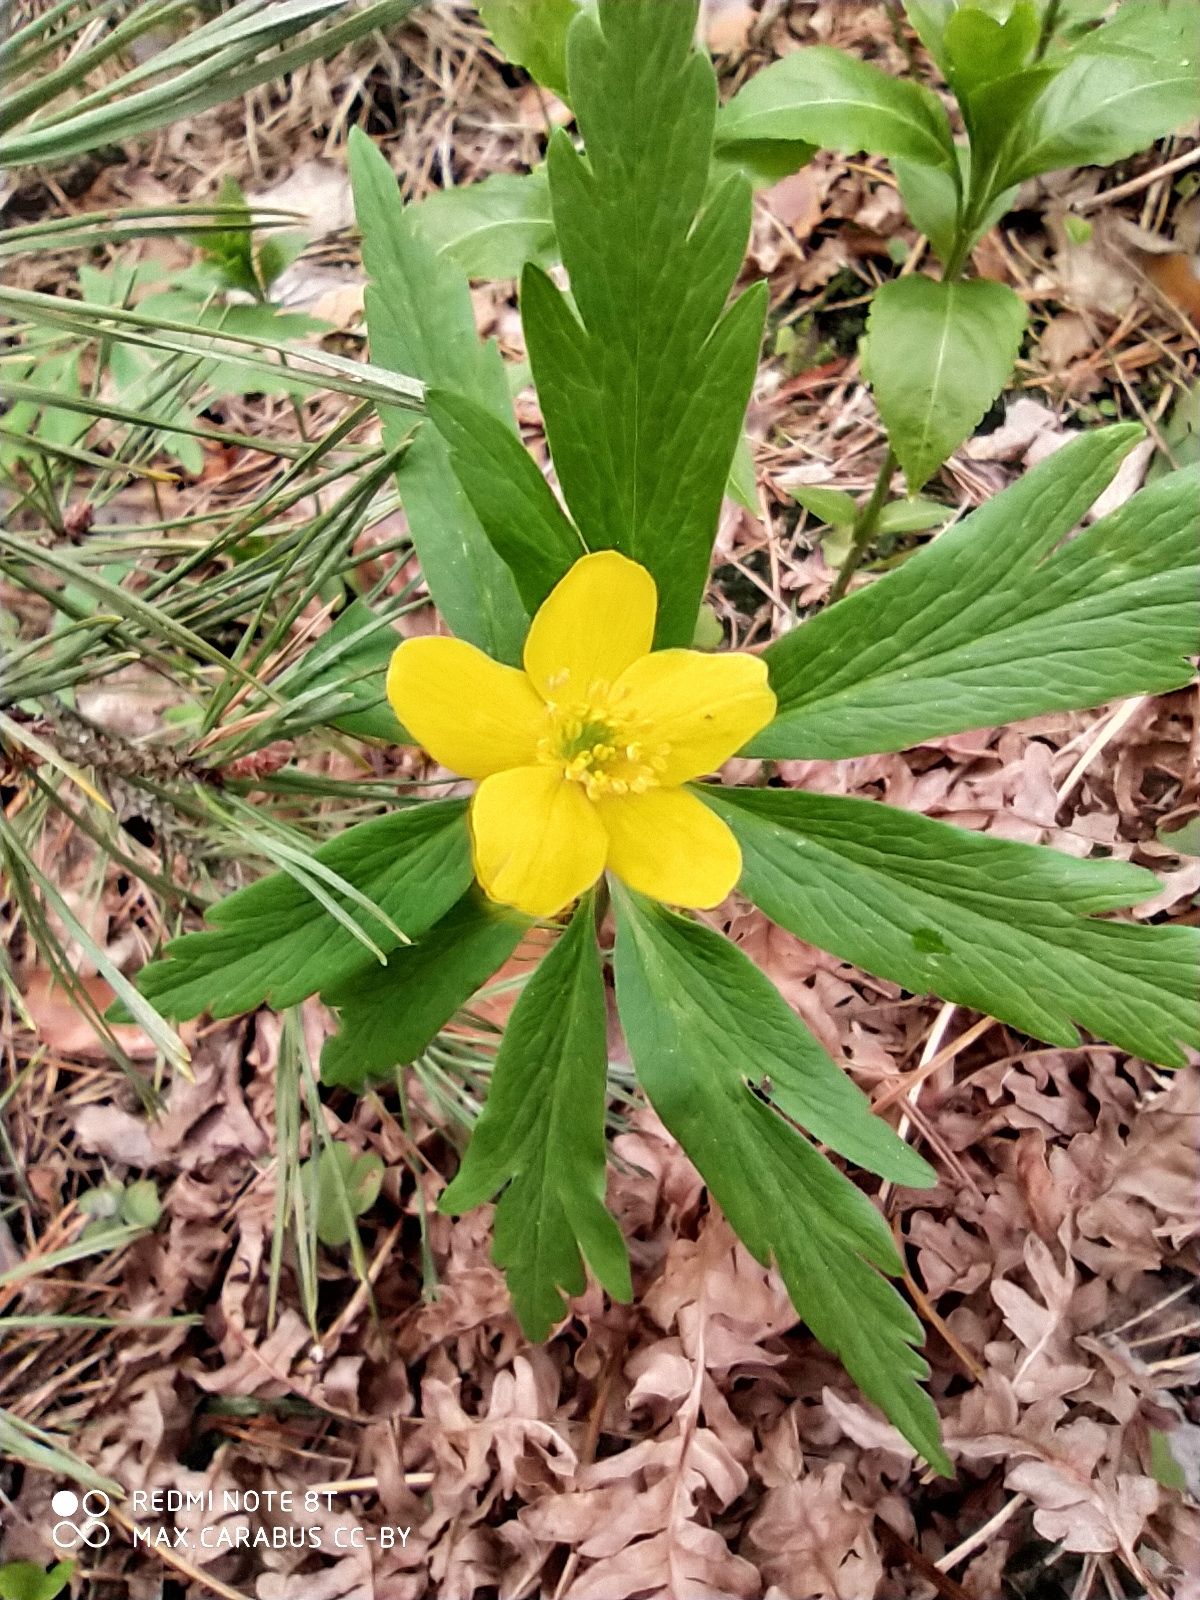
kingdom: Plantae
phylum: Tracheophyta
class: Magnoliopsida
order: Ranunculales
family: Ranunculaceae
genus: Anemone
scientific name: Anemone ranunculoides
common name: Yellow anemone
